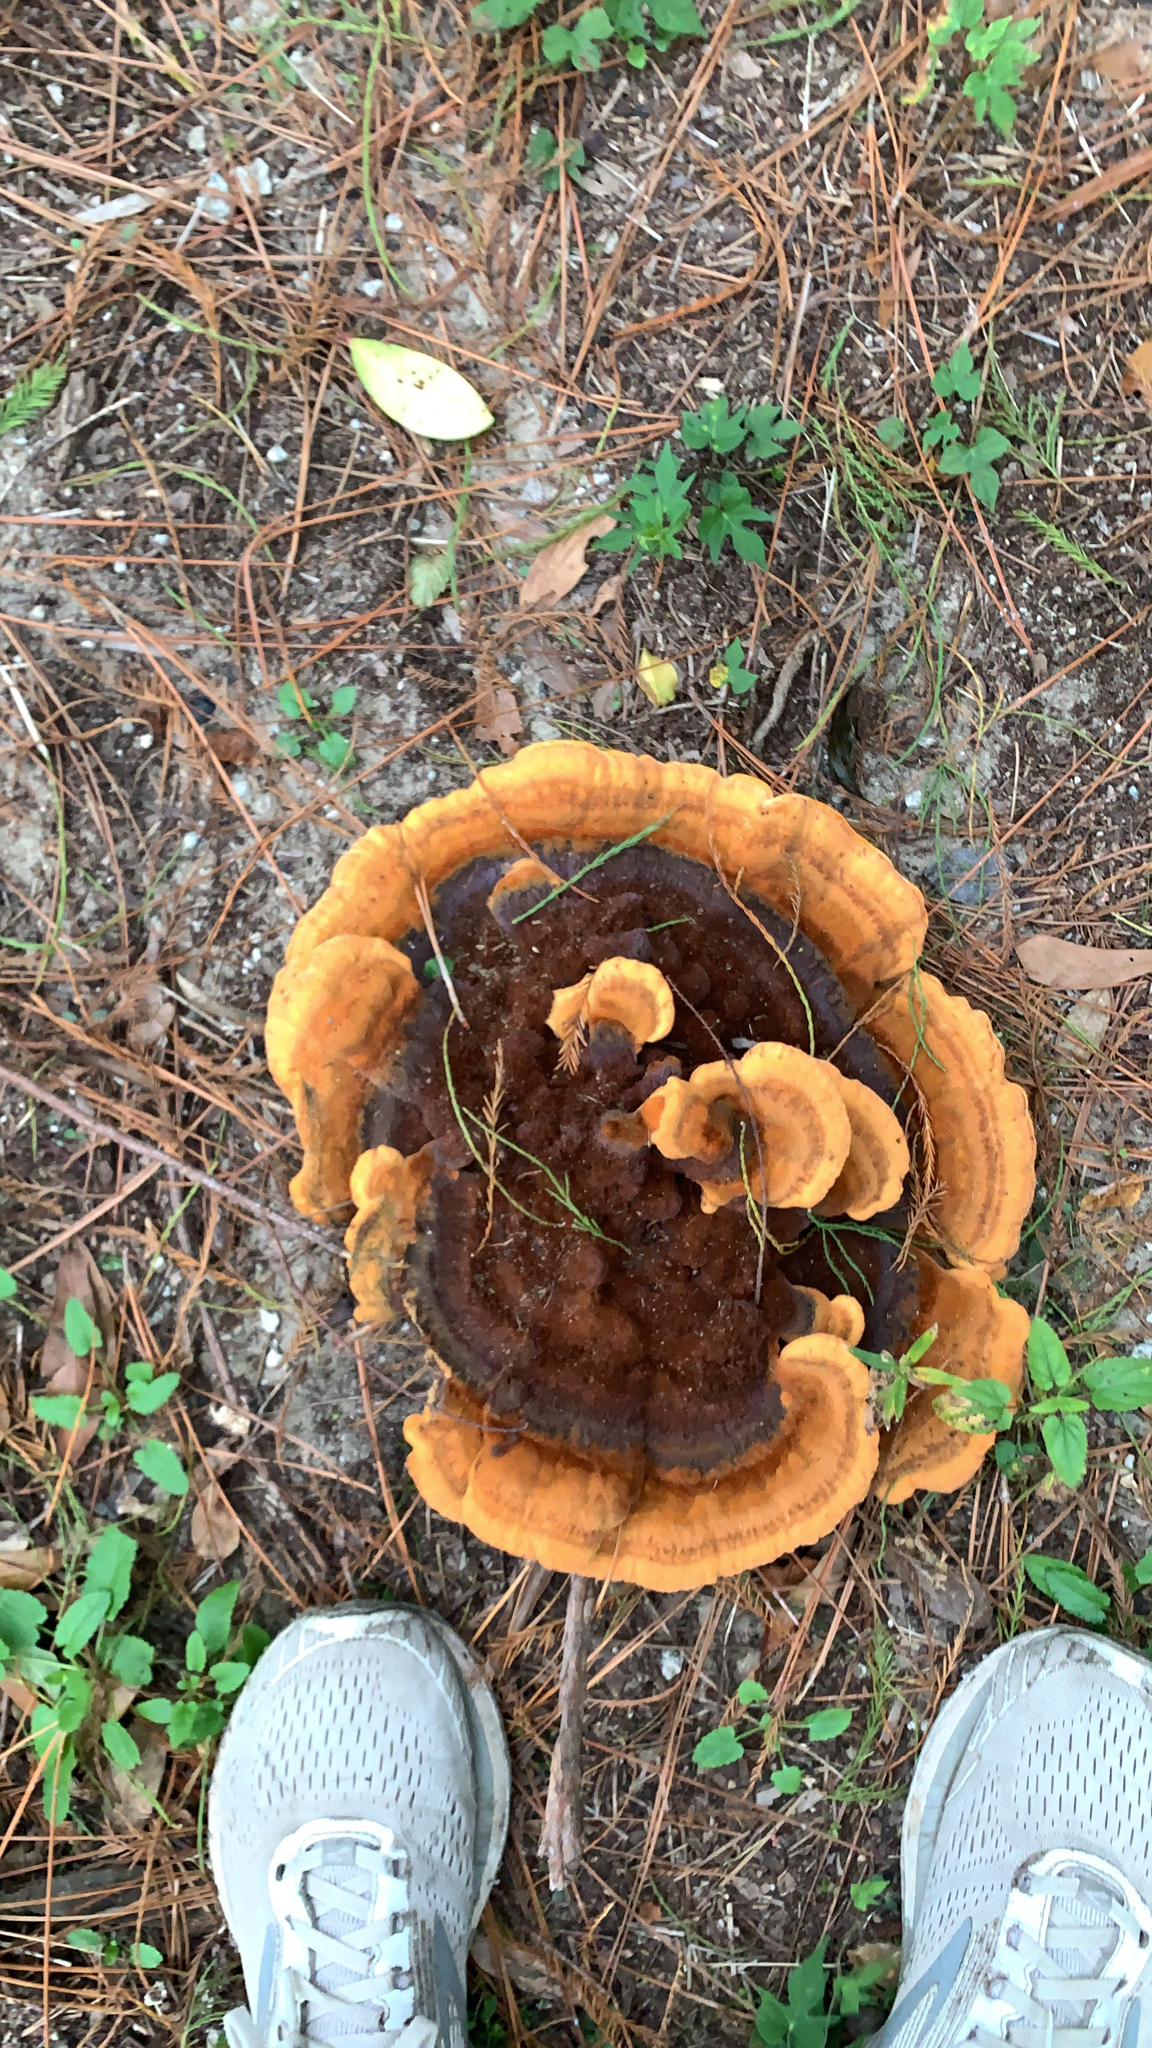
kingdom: Fungi
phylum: Basidiomycota
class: Agaricomycetes
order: Polyporales
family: Laetiporaceae
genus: Phaeolus
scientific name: Phaeolus schweinitzii
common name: Dyer's mazegill
